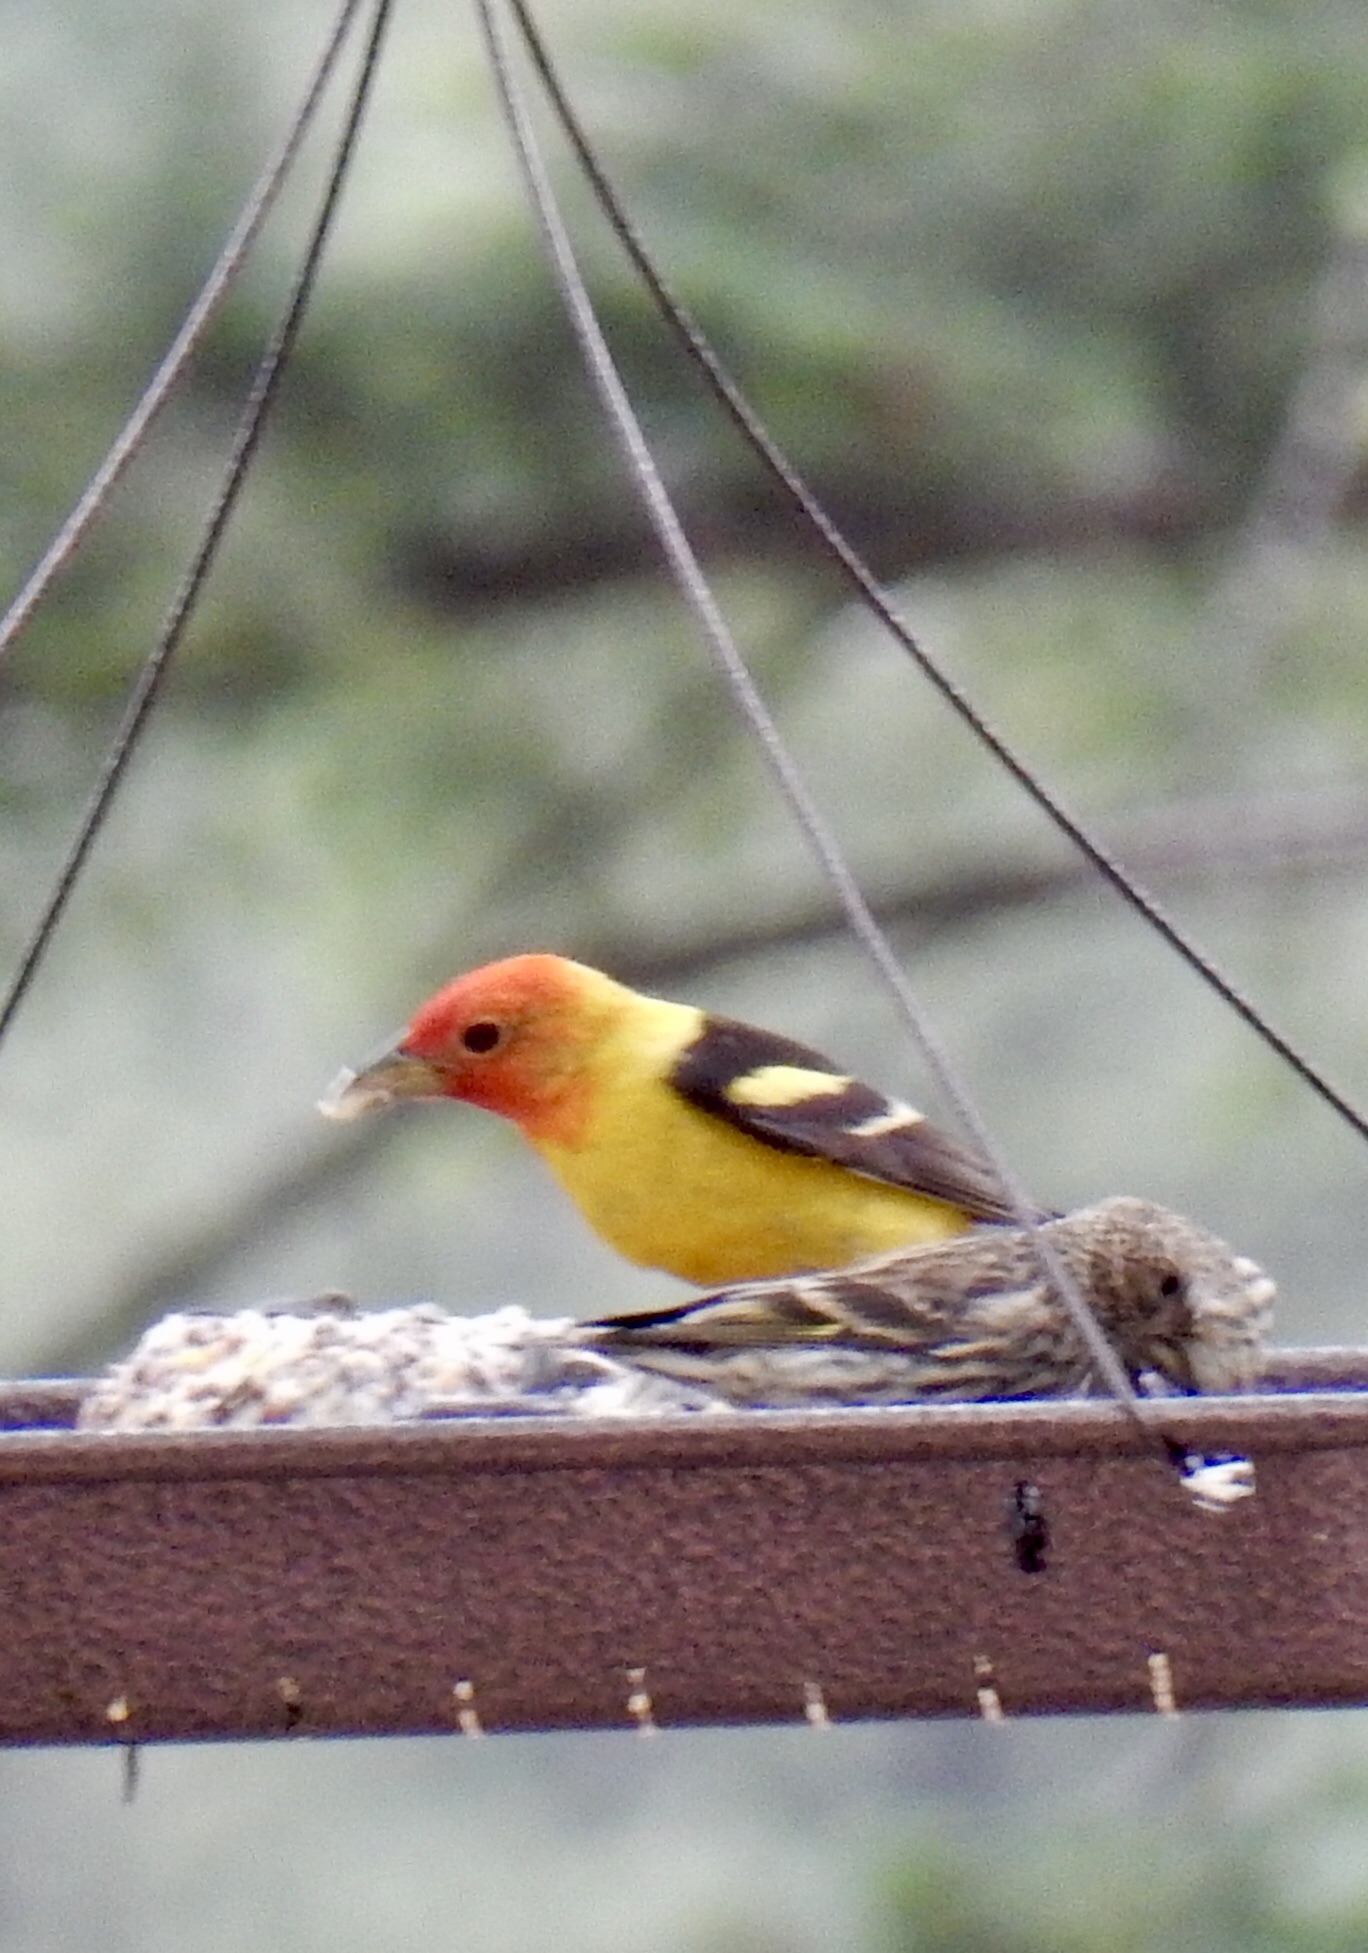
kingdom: Animalia
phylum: Chordata
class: Aves
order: Passeriformes
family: Cardinalidae
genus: Piranga
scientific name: Piranga ludoviciana
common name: Western tanager
